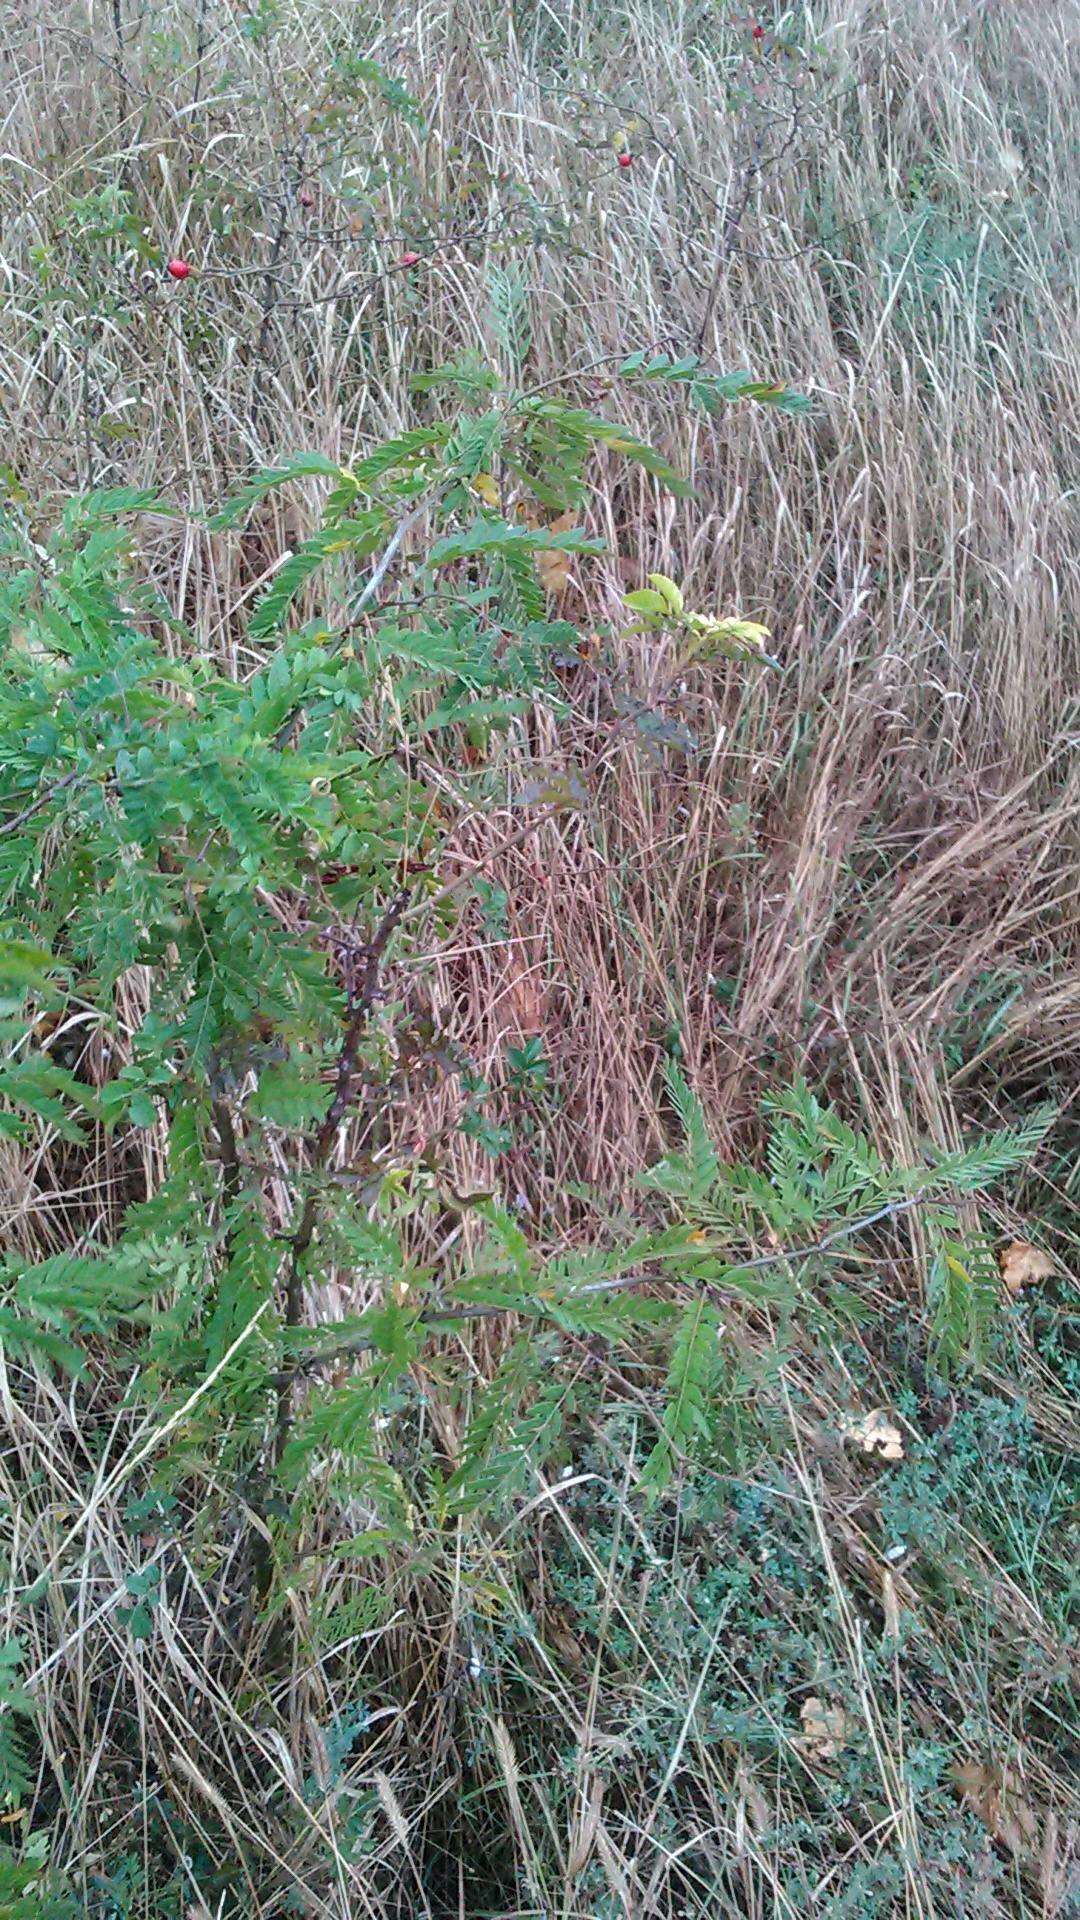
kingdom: Plantae
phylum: Tracheophyta
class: Magnoliopsida
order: Fabales
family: Fabaceae
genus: Gleditsia
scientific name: Gleditsia triacanthos
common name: Common honeylocust
